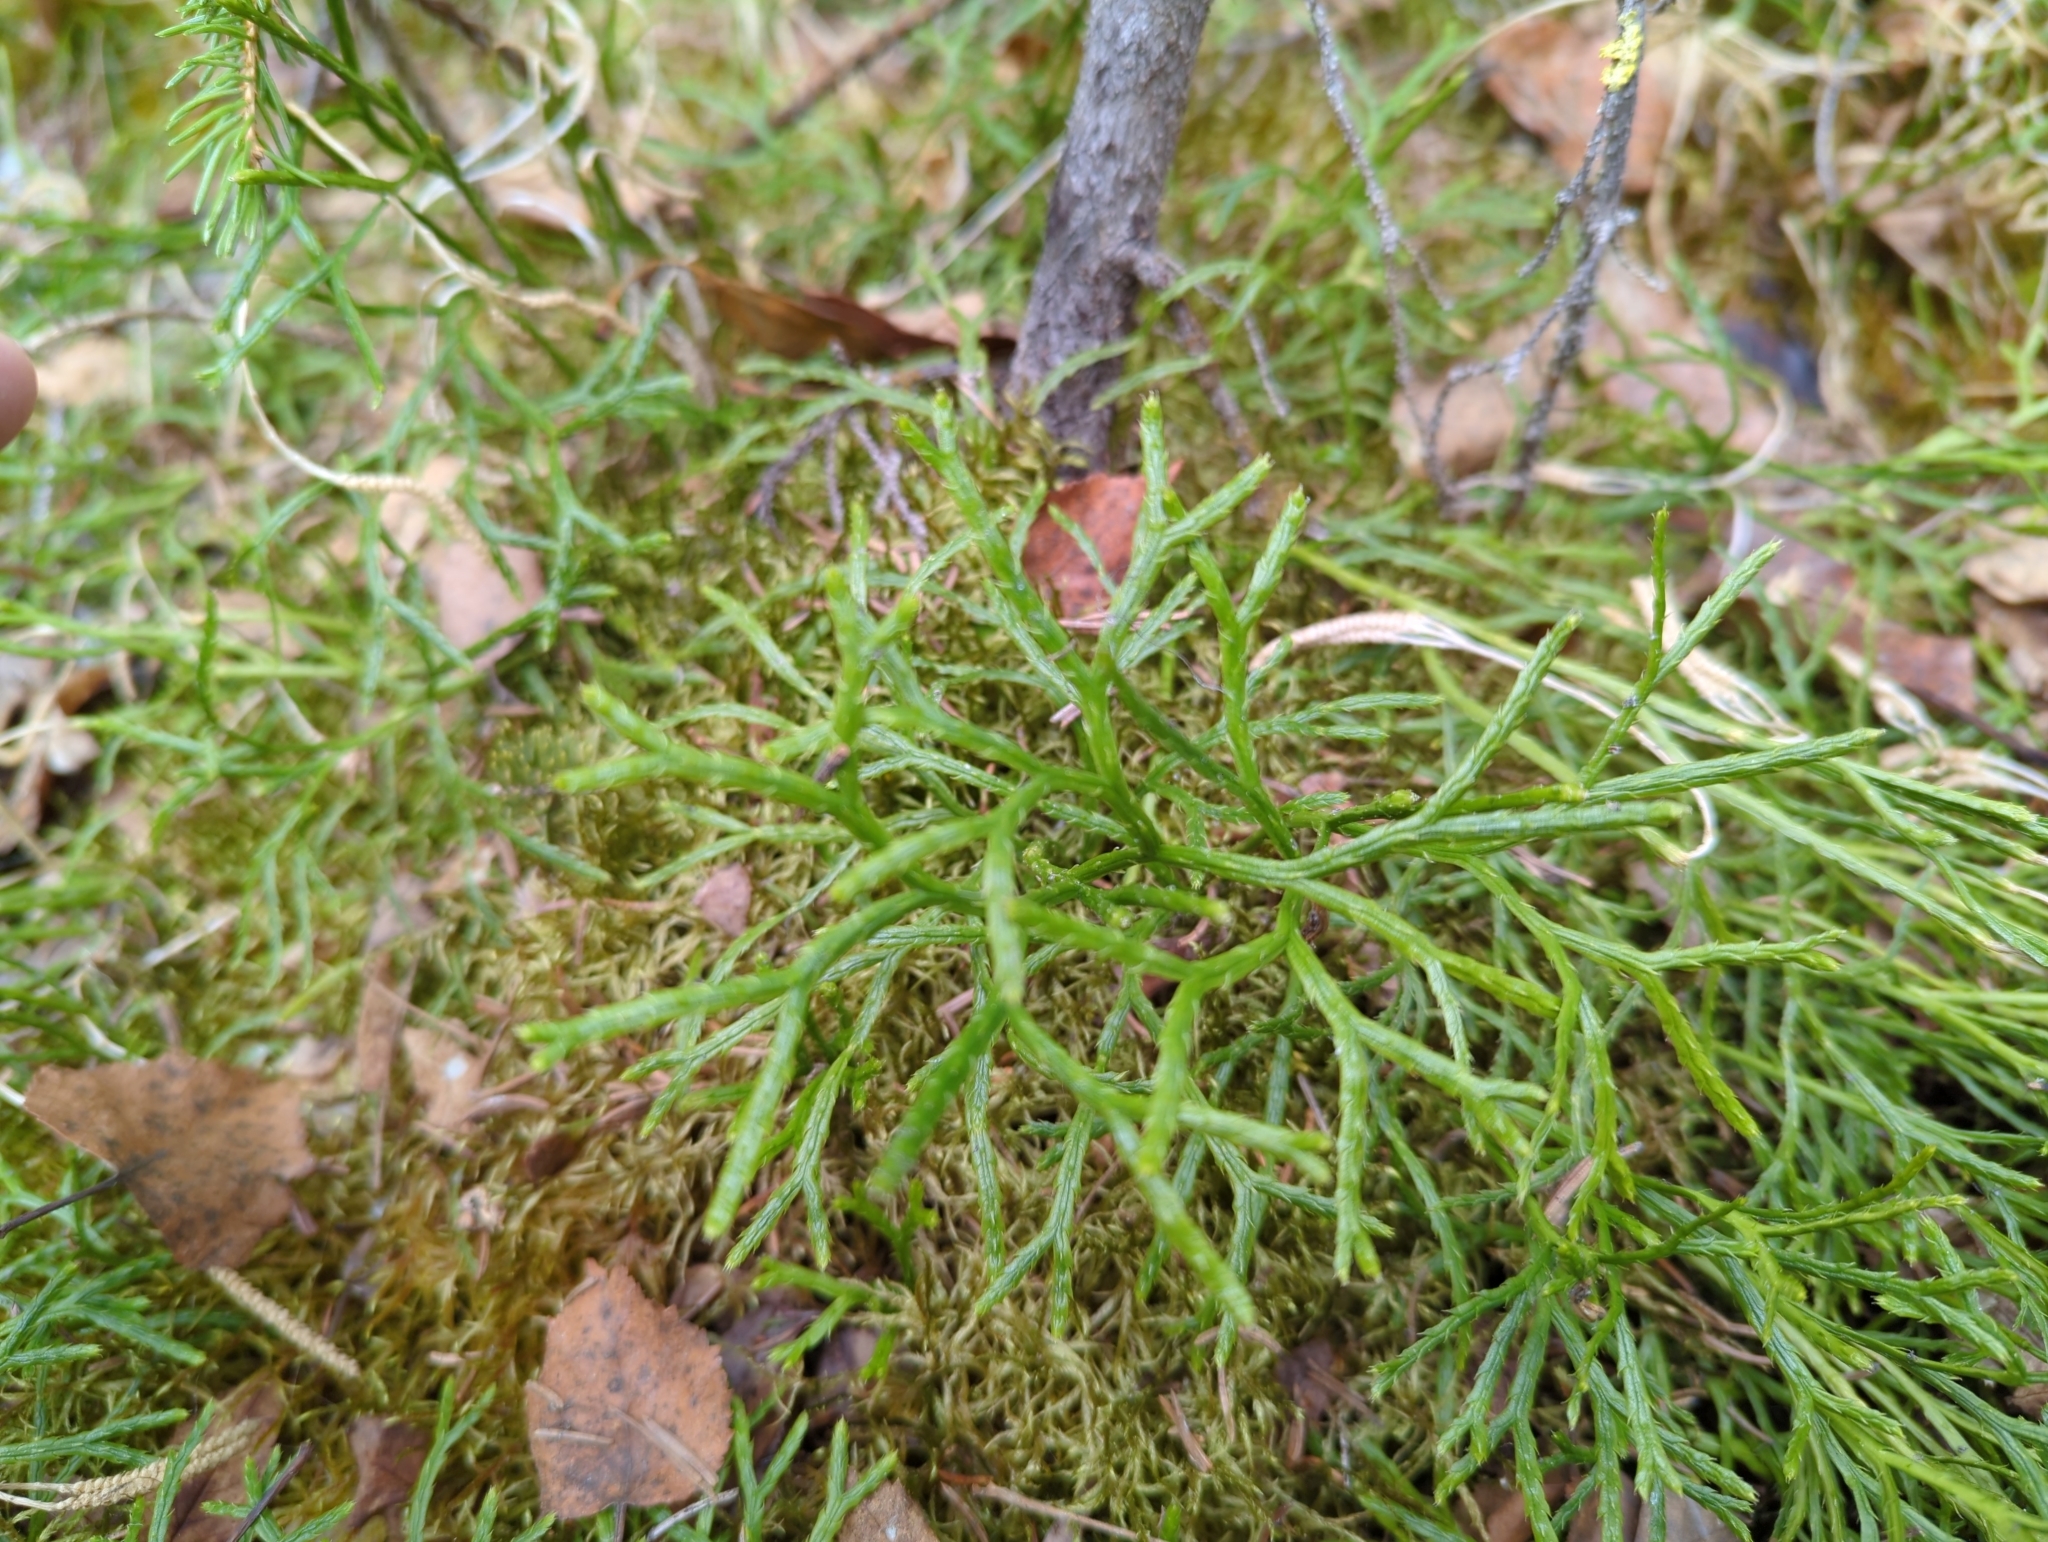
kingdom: Plantae
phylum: Tracheophyta
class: Lycopodiopsida
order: Lycopodiales
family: Lycopodiaceae
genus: Diphasiastrum
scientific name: Diphasiastrum complanatum
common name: Northern running-pine
